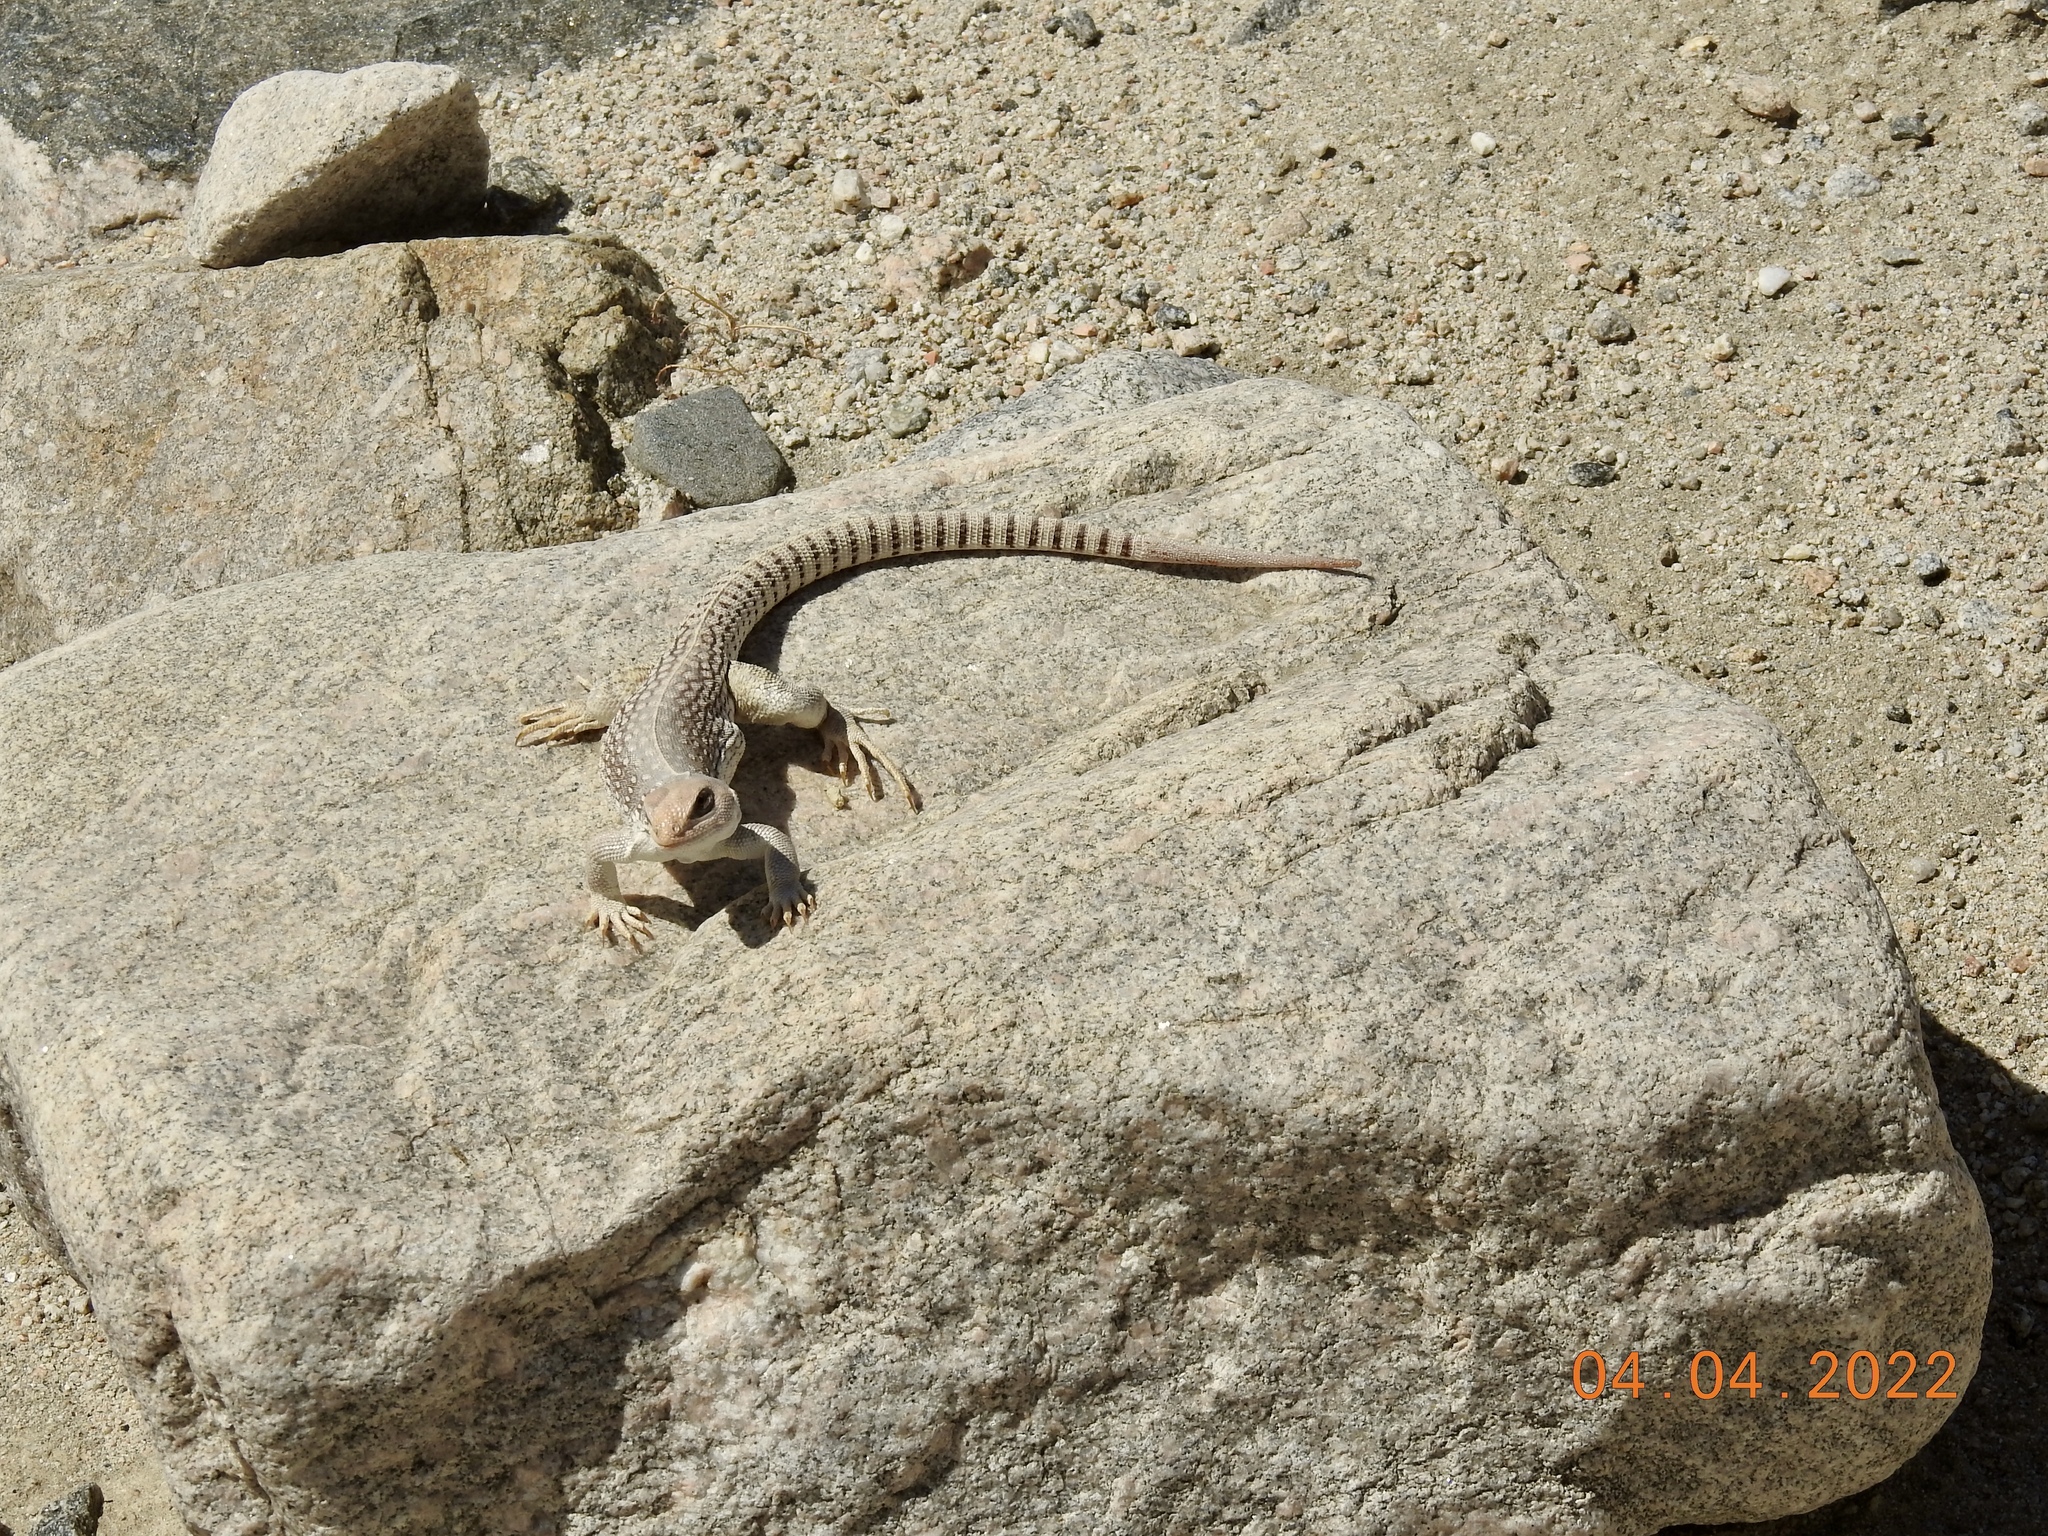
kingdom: Animalia
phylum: Chordata
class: Squamata
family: Iguanidae
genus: Dipsosaurus
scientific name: Dipsosaurus dorsalis
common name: Desert iguana
